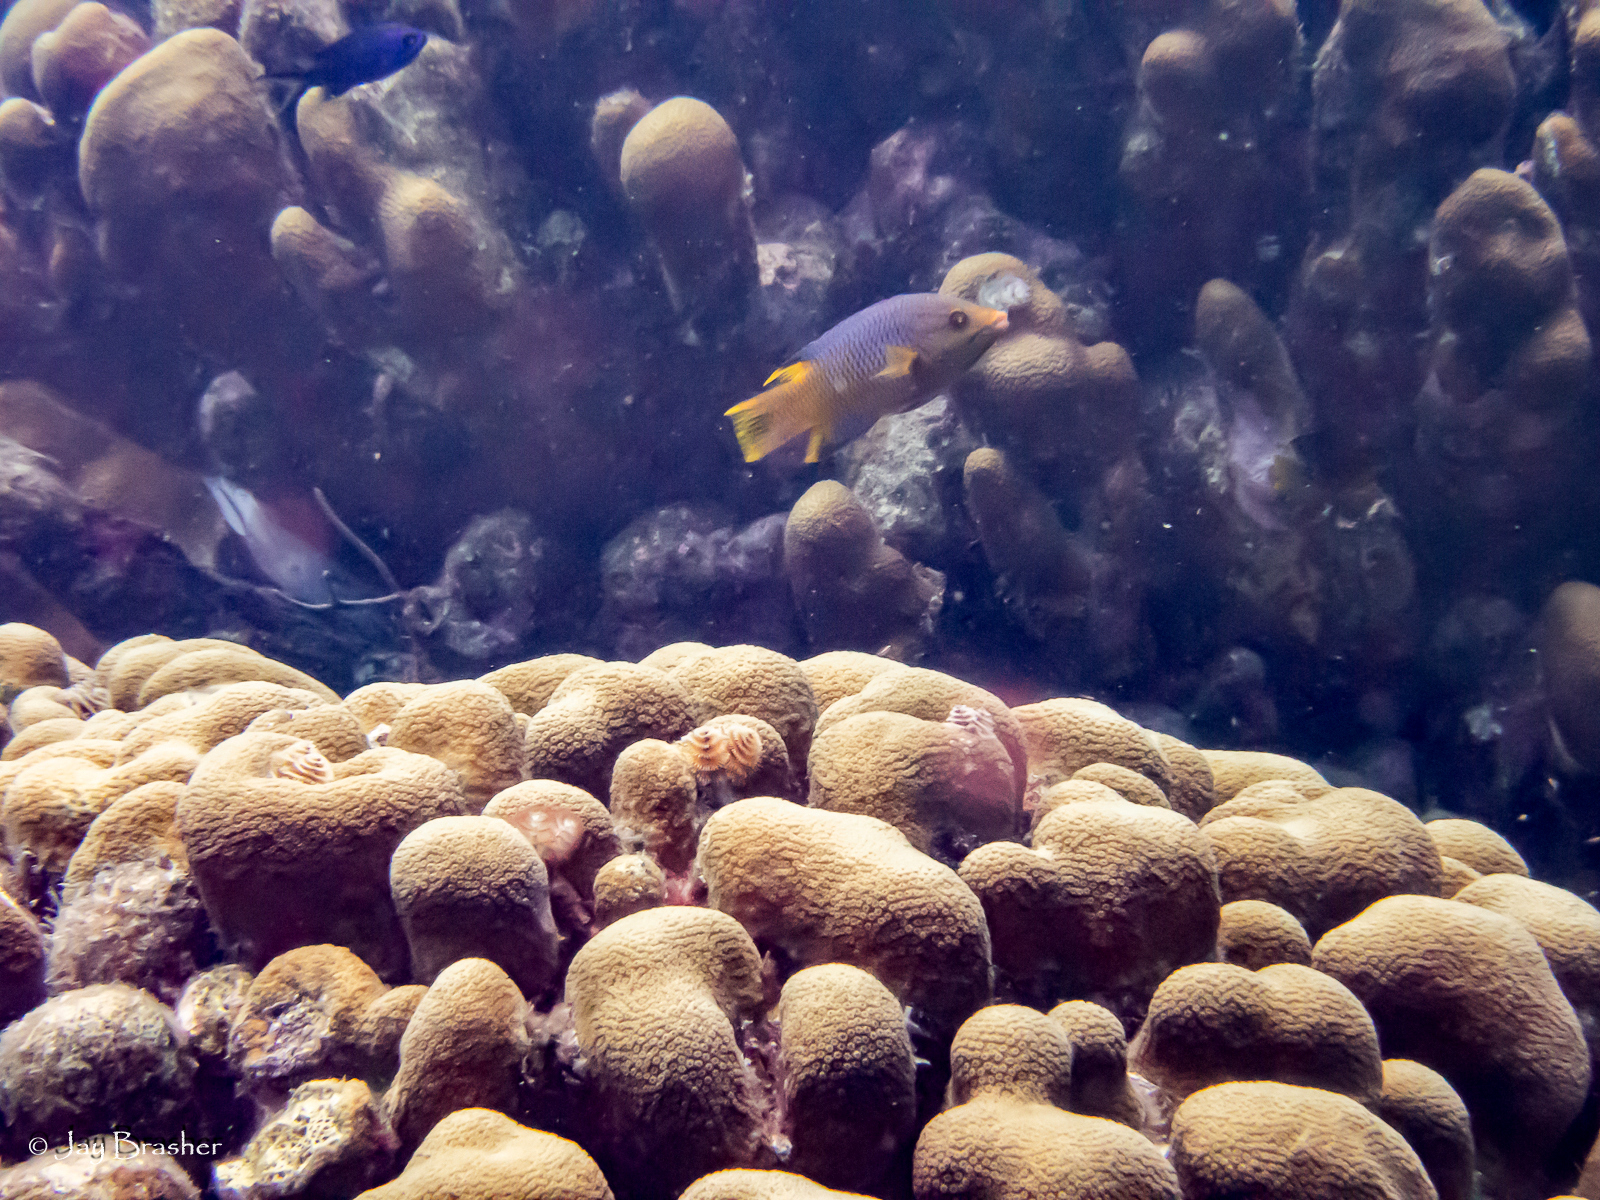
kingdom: Animalia
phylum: Cnidaria
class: Anthozoa
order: Scleractinia
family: Merulinidae
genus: Orbicella
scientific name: Orbicella annularis
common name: Boulder star coral
